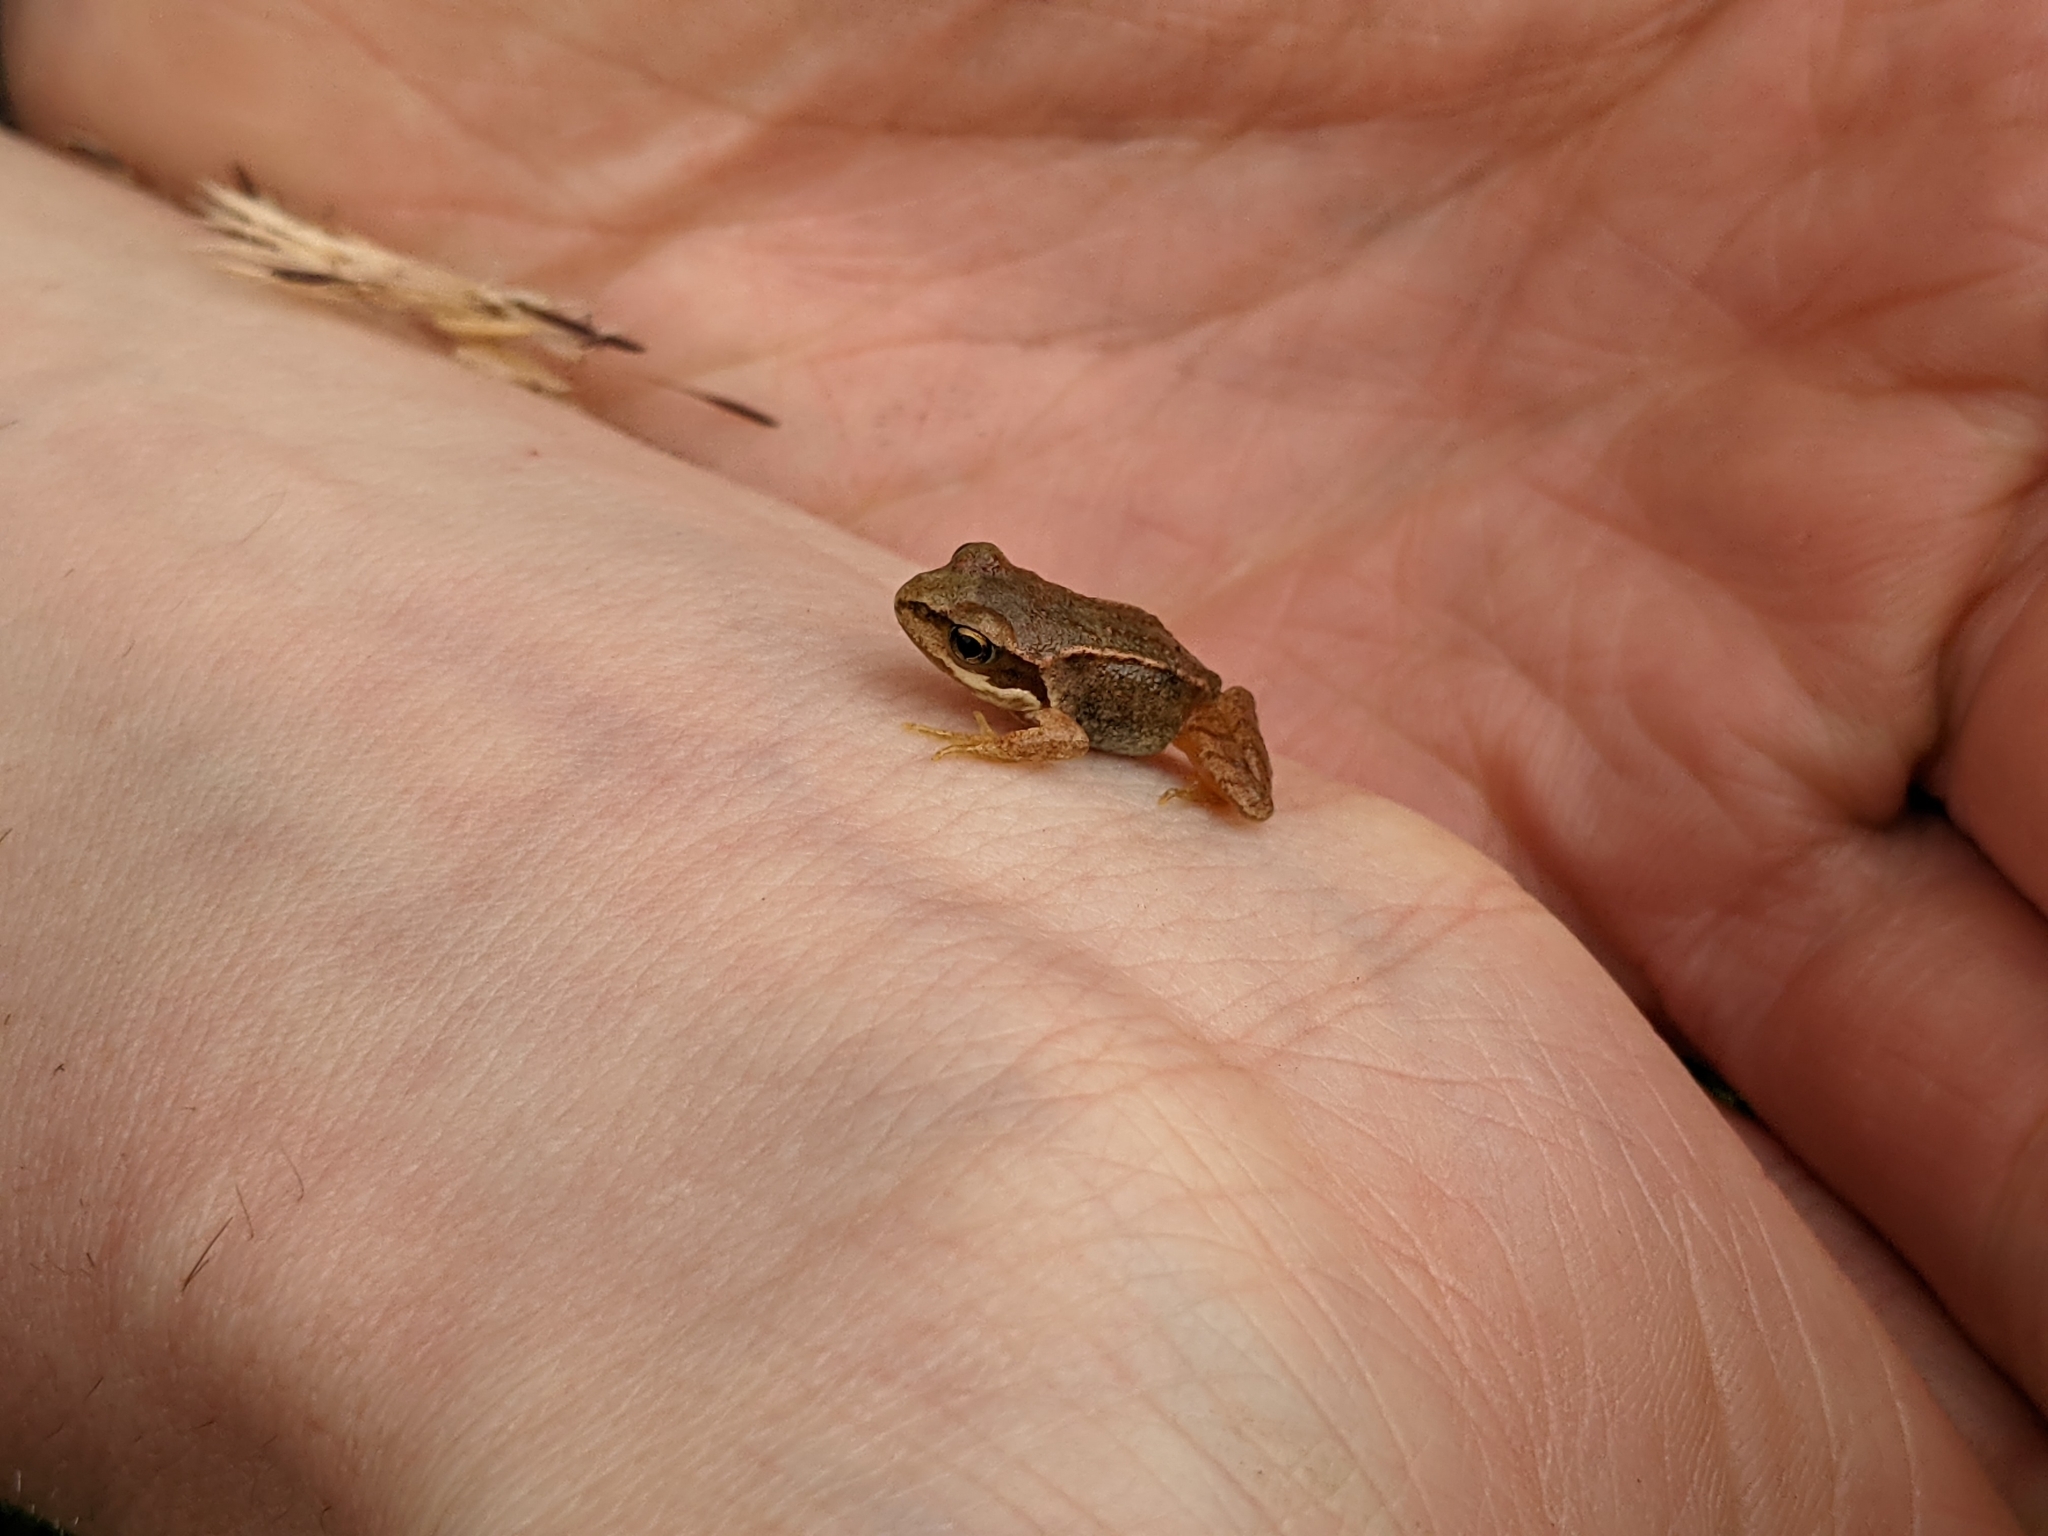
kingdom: Animalia
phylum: Chordata
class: Amphibia
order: Anura
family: Ranidae
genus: Rana
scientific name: Rana temporaria
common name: Common frog
